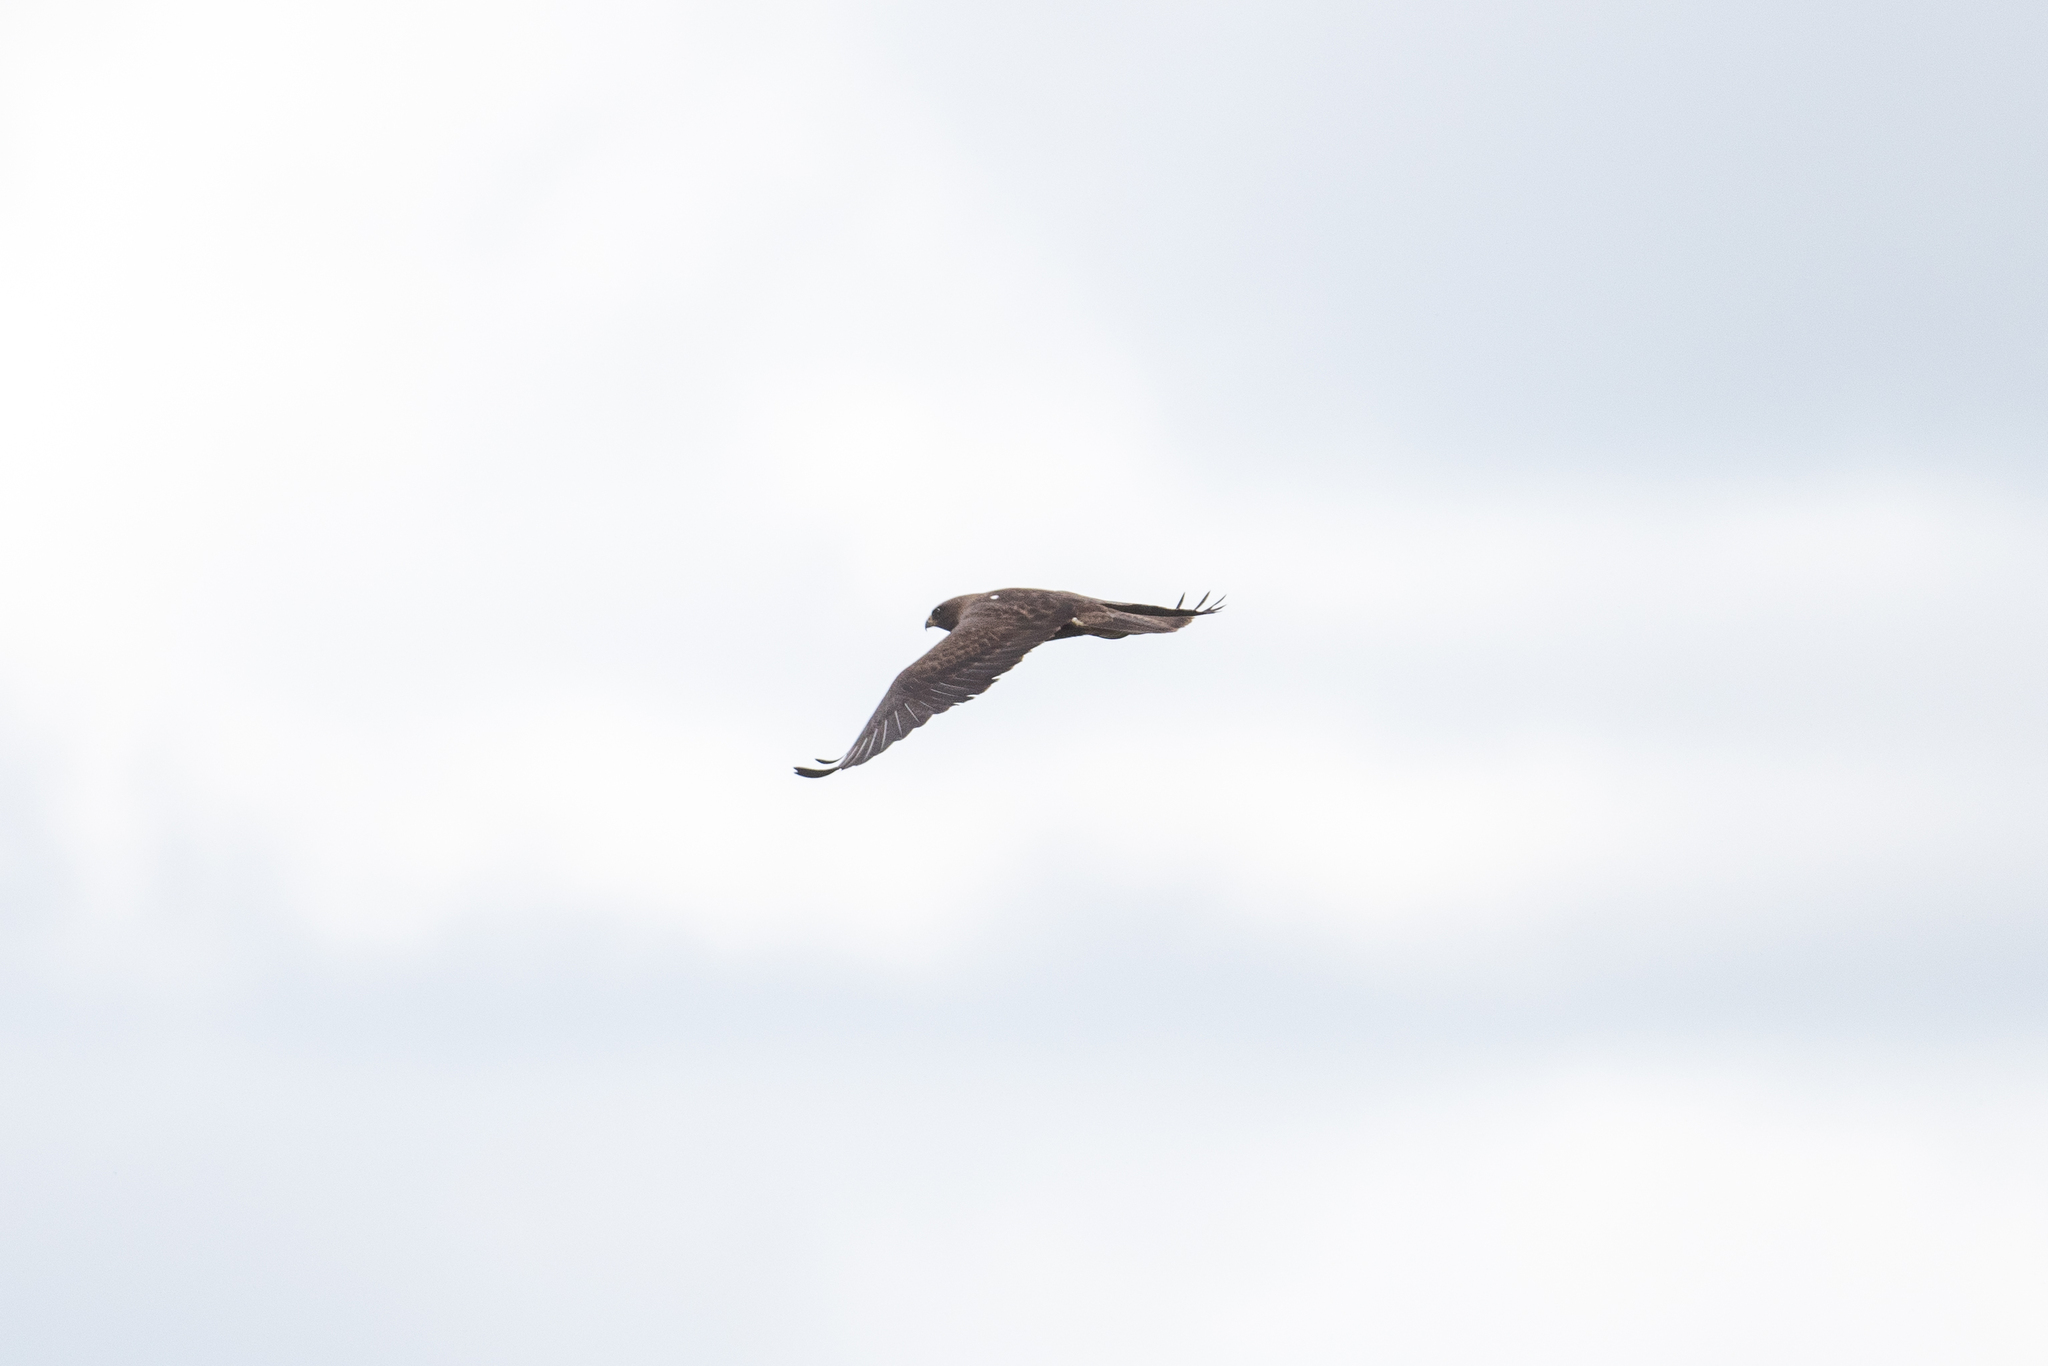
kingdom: Animalia
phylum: Chordata
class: Aves
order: Accipitriformes
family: Accipitridae
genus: Buteo
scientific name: Buteo swainsoni
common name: Swainson's hawk
